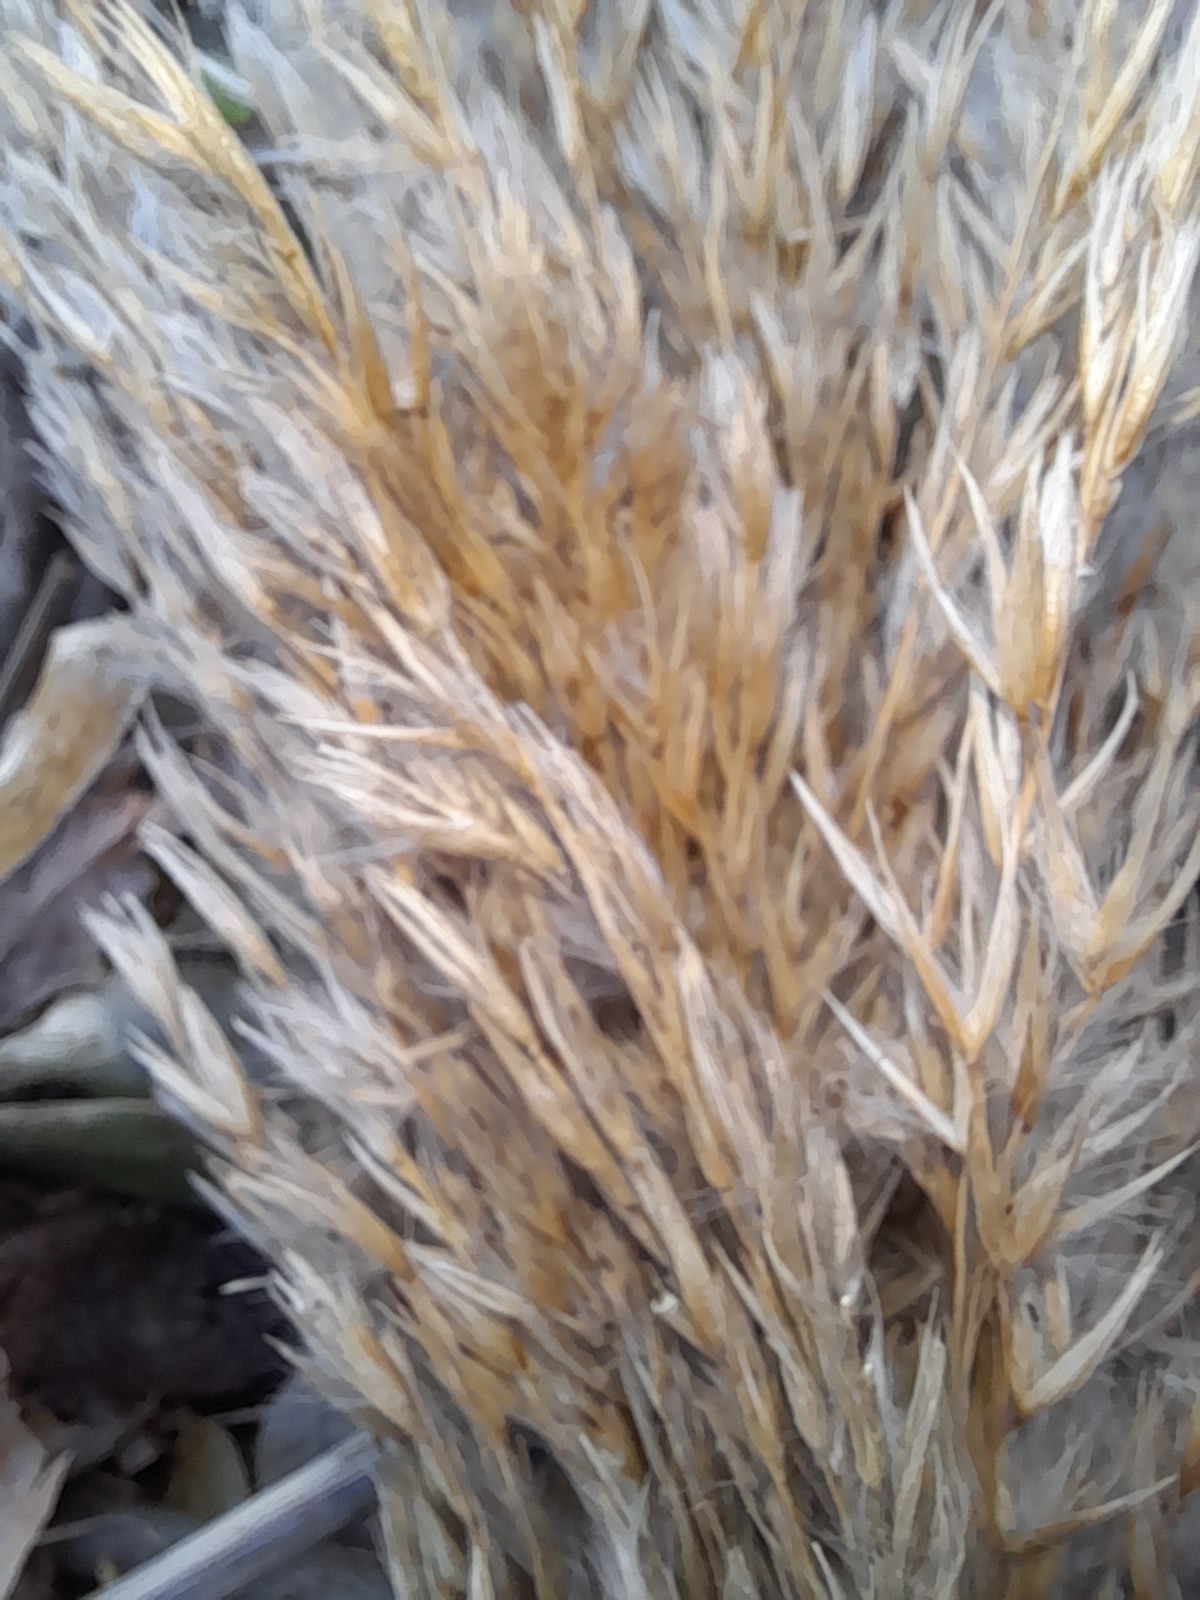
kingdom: Plantae
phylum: Tracheophyta
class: Liliopsida
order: Poales
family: Poaceae
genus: Arundo
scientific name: Arundo donax
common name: Giant reed
